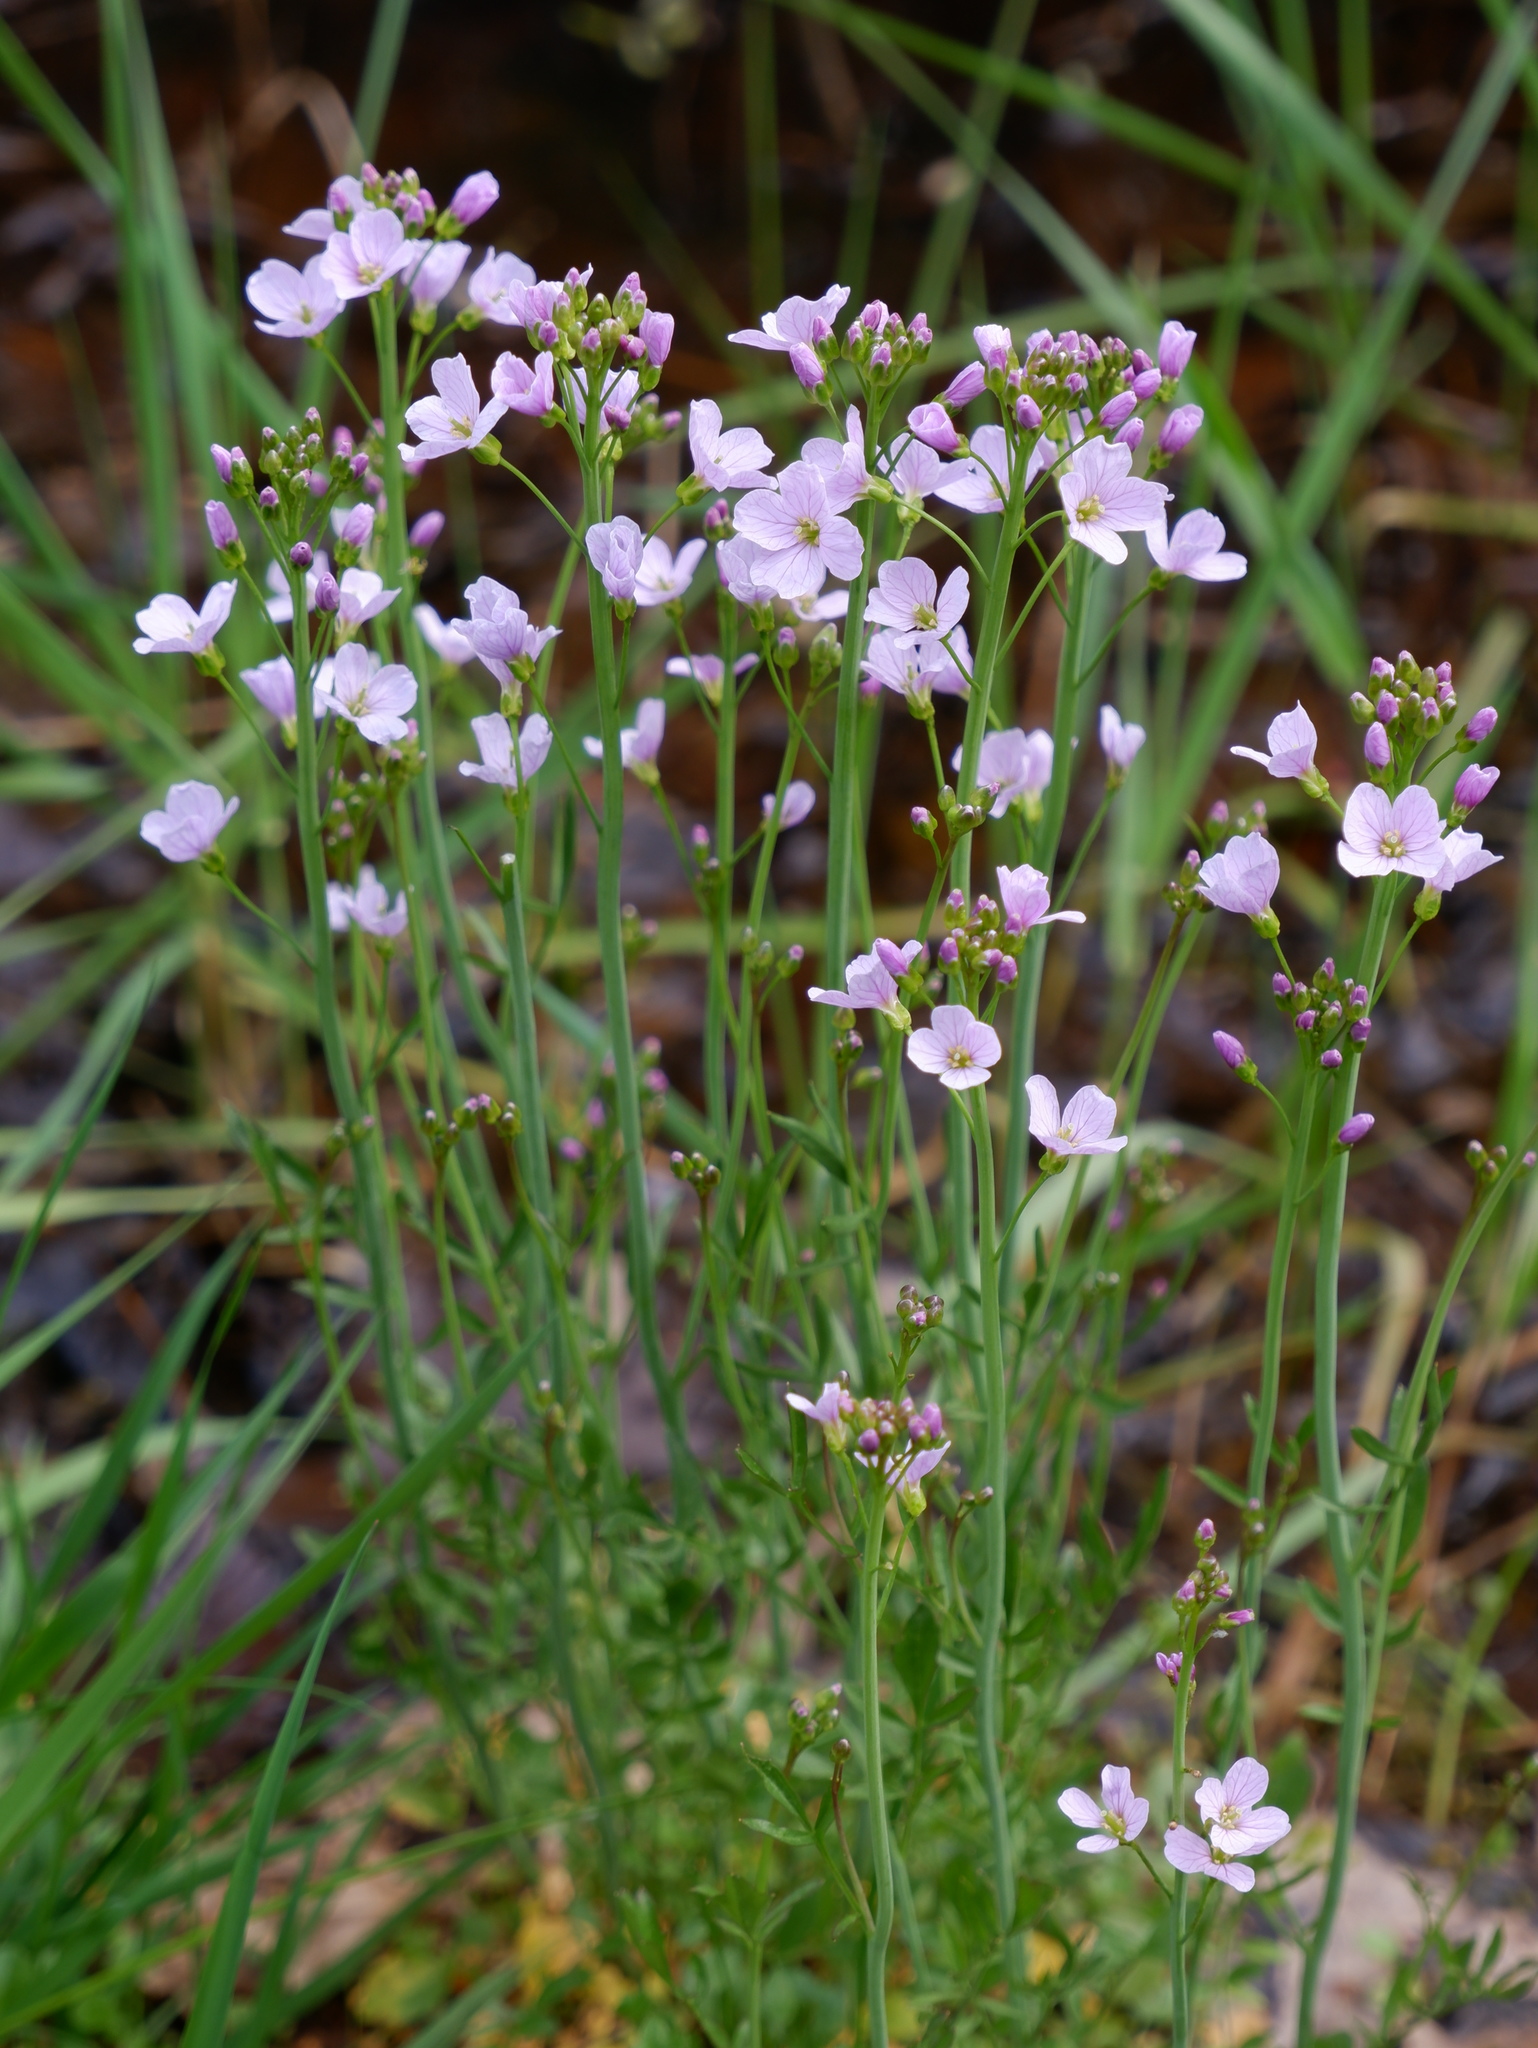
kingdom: Plantae
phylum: Tracheophyta
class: Magnoliopsida
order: Brassicales
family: Brassicaceae
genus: Cardamine
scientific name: Cardamine pratensis
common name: Cuckoo flower
